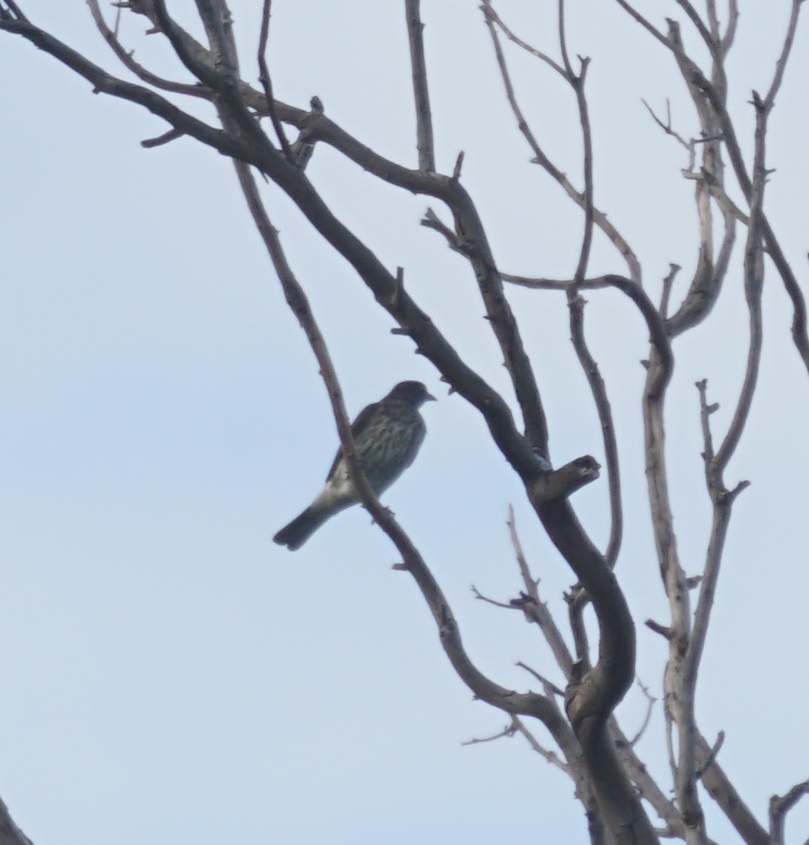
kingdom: Animalia
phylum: Chordata
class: Aves
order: Passeriformes
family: Oriolidae
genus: Sphecotheres
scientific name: Sphecotheres vieilloti
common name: Australasian figbird
